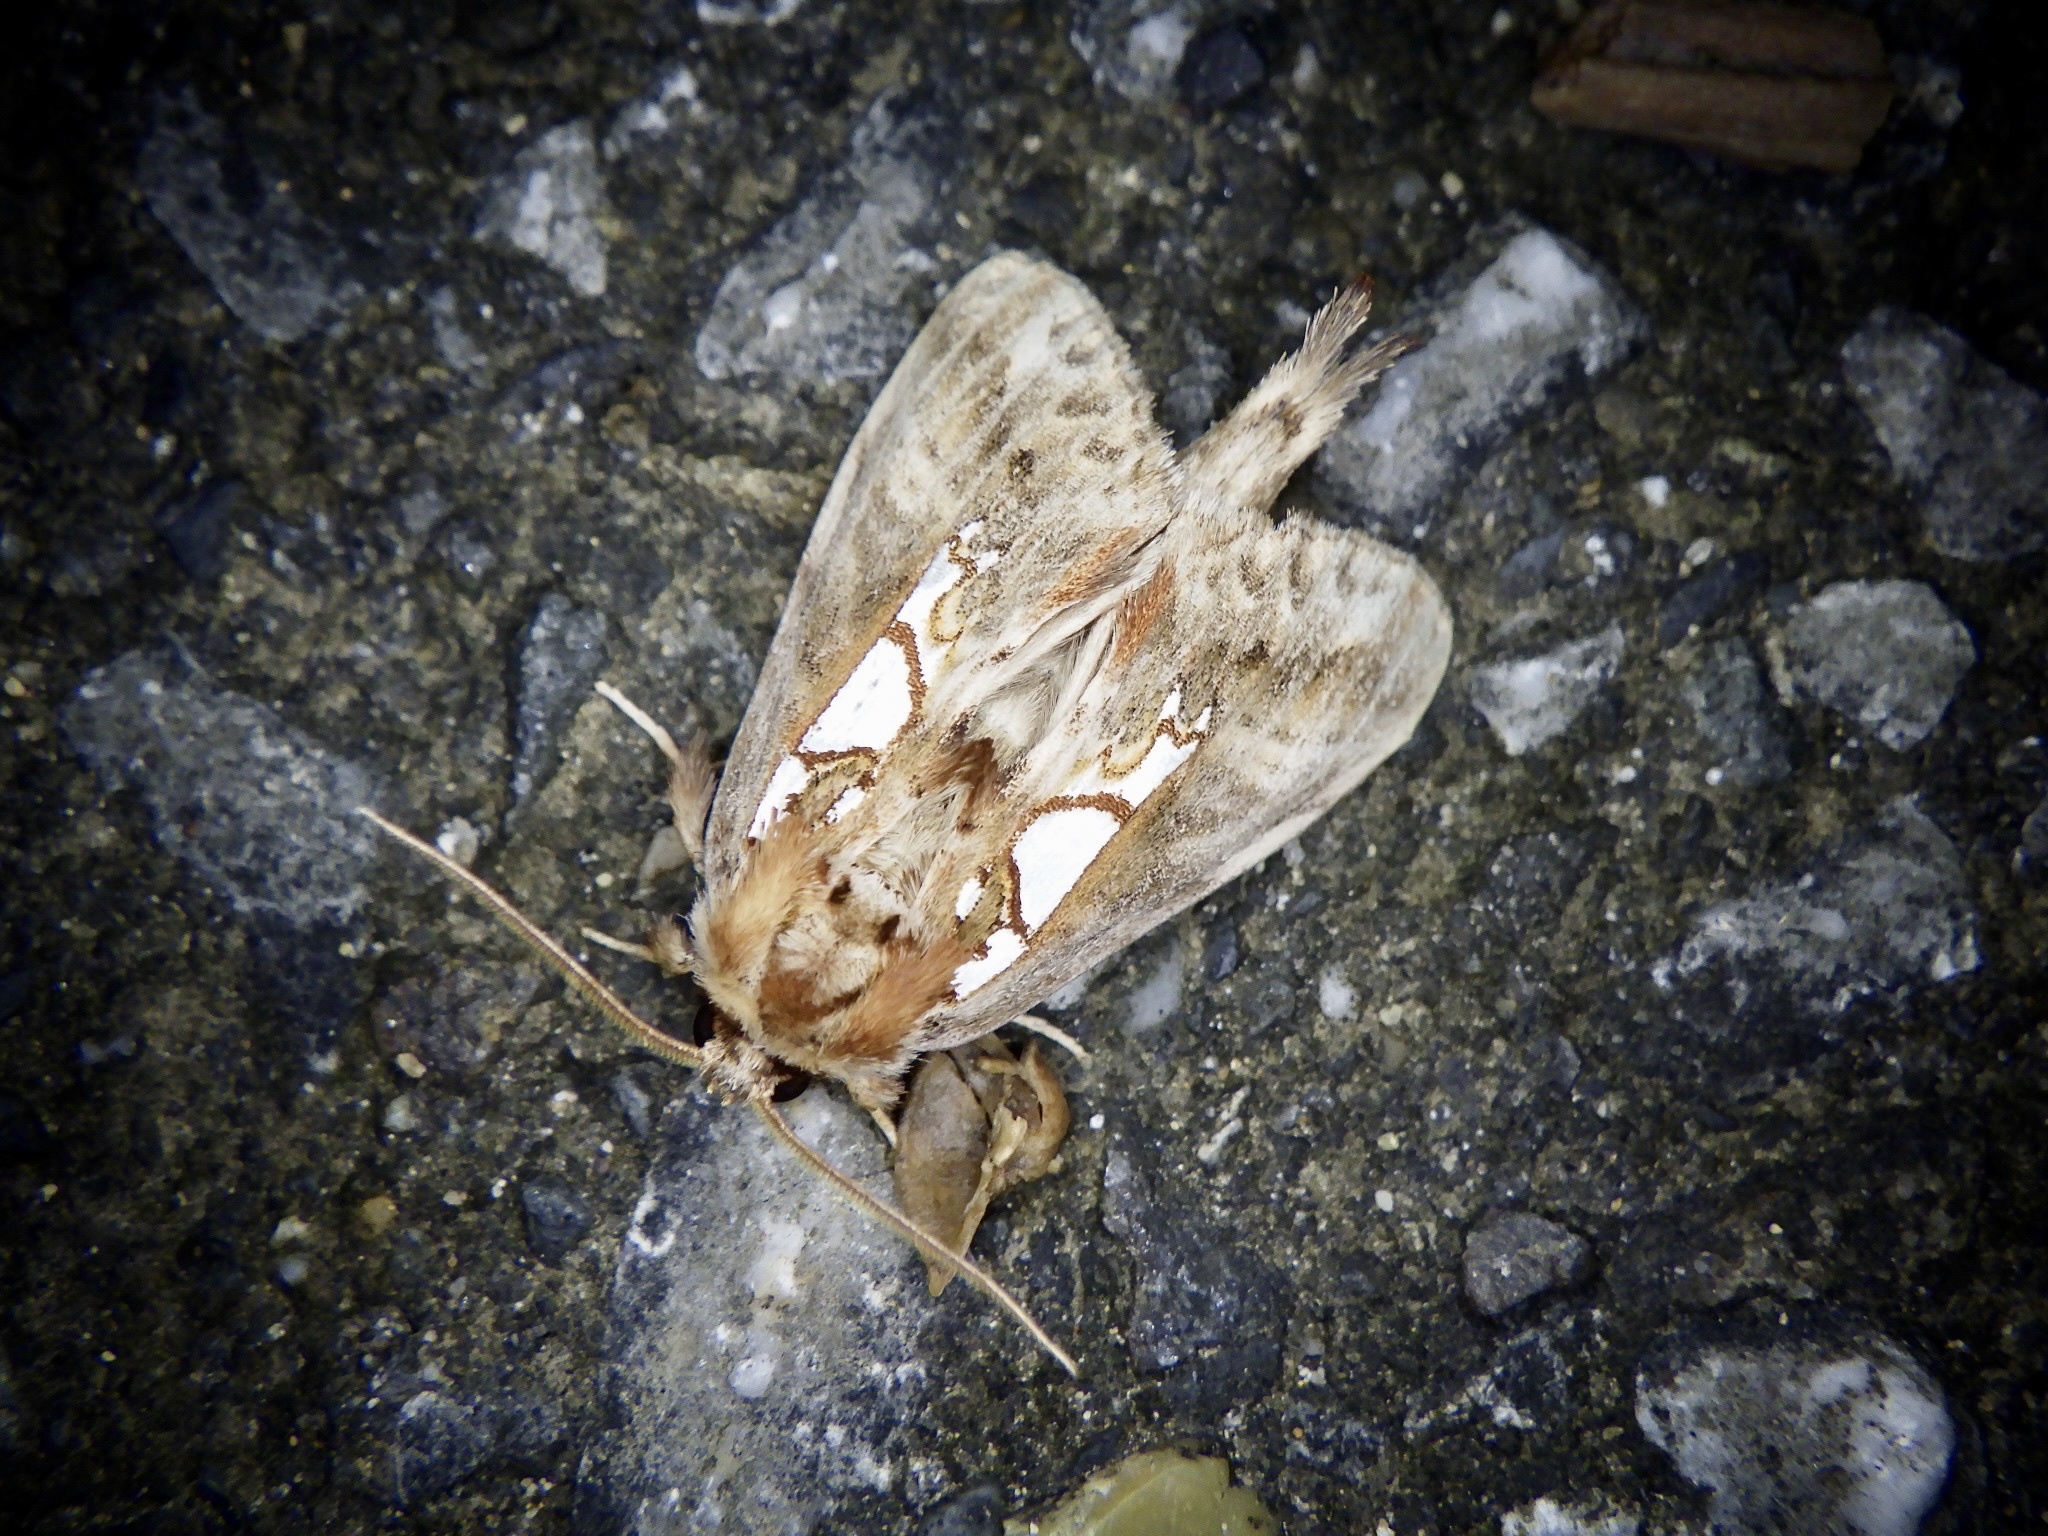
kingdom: Animalia
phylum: Arthropoda
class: Insecta
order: Lepidoptera
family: Notodontidae
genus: Spatalia
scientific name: Spatalia doerriesi
